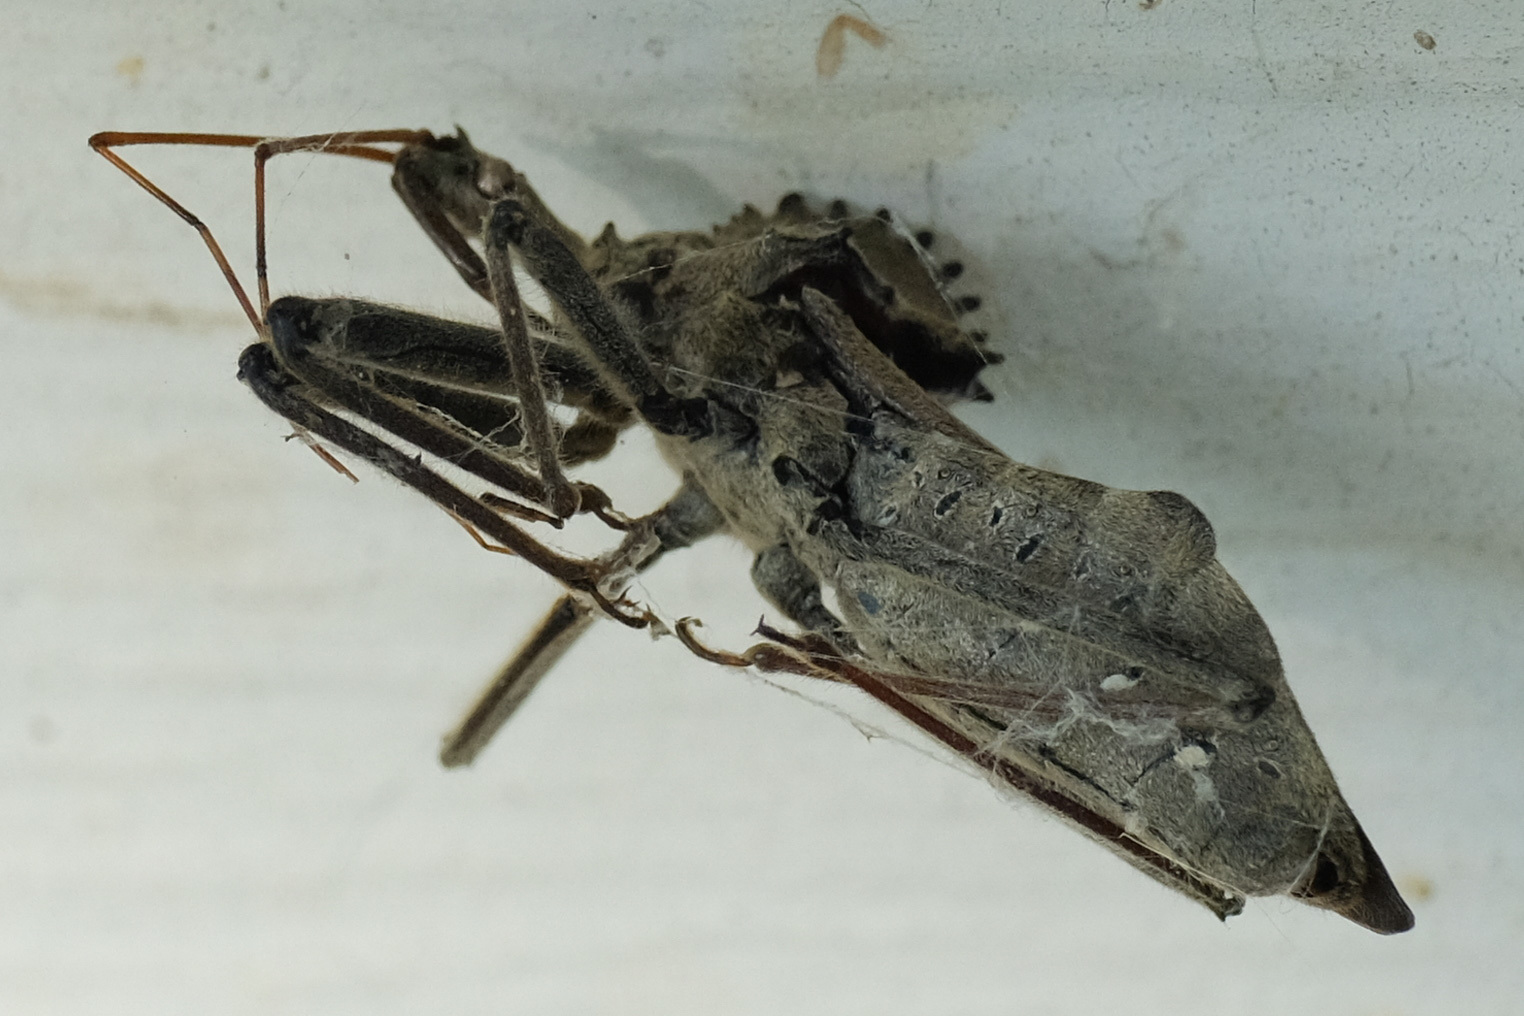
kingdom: Animalia
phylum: Arthropoda
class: Insecta
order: Hemiptera
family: Reduviidae
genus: Arilus
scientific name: Arilus cristatus
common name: North american wheel bug
